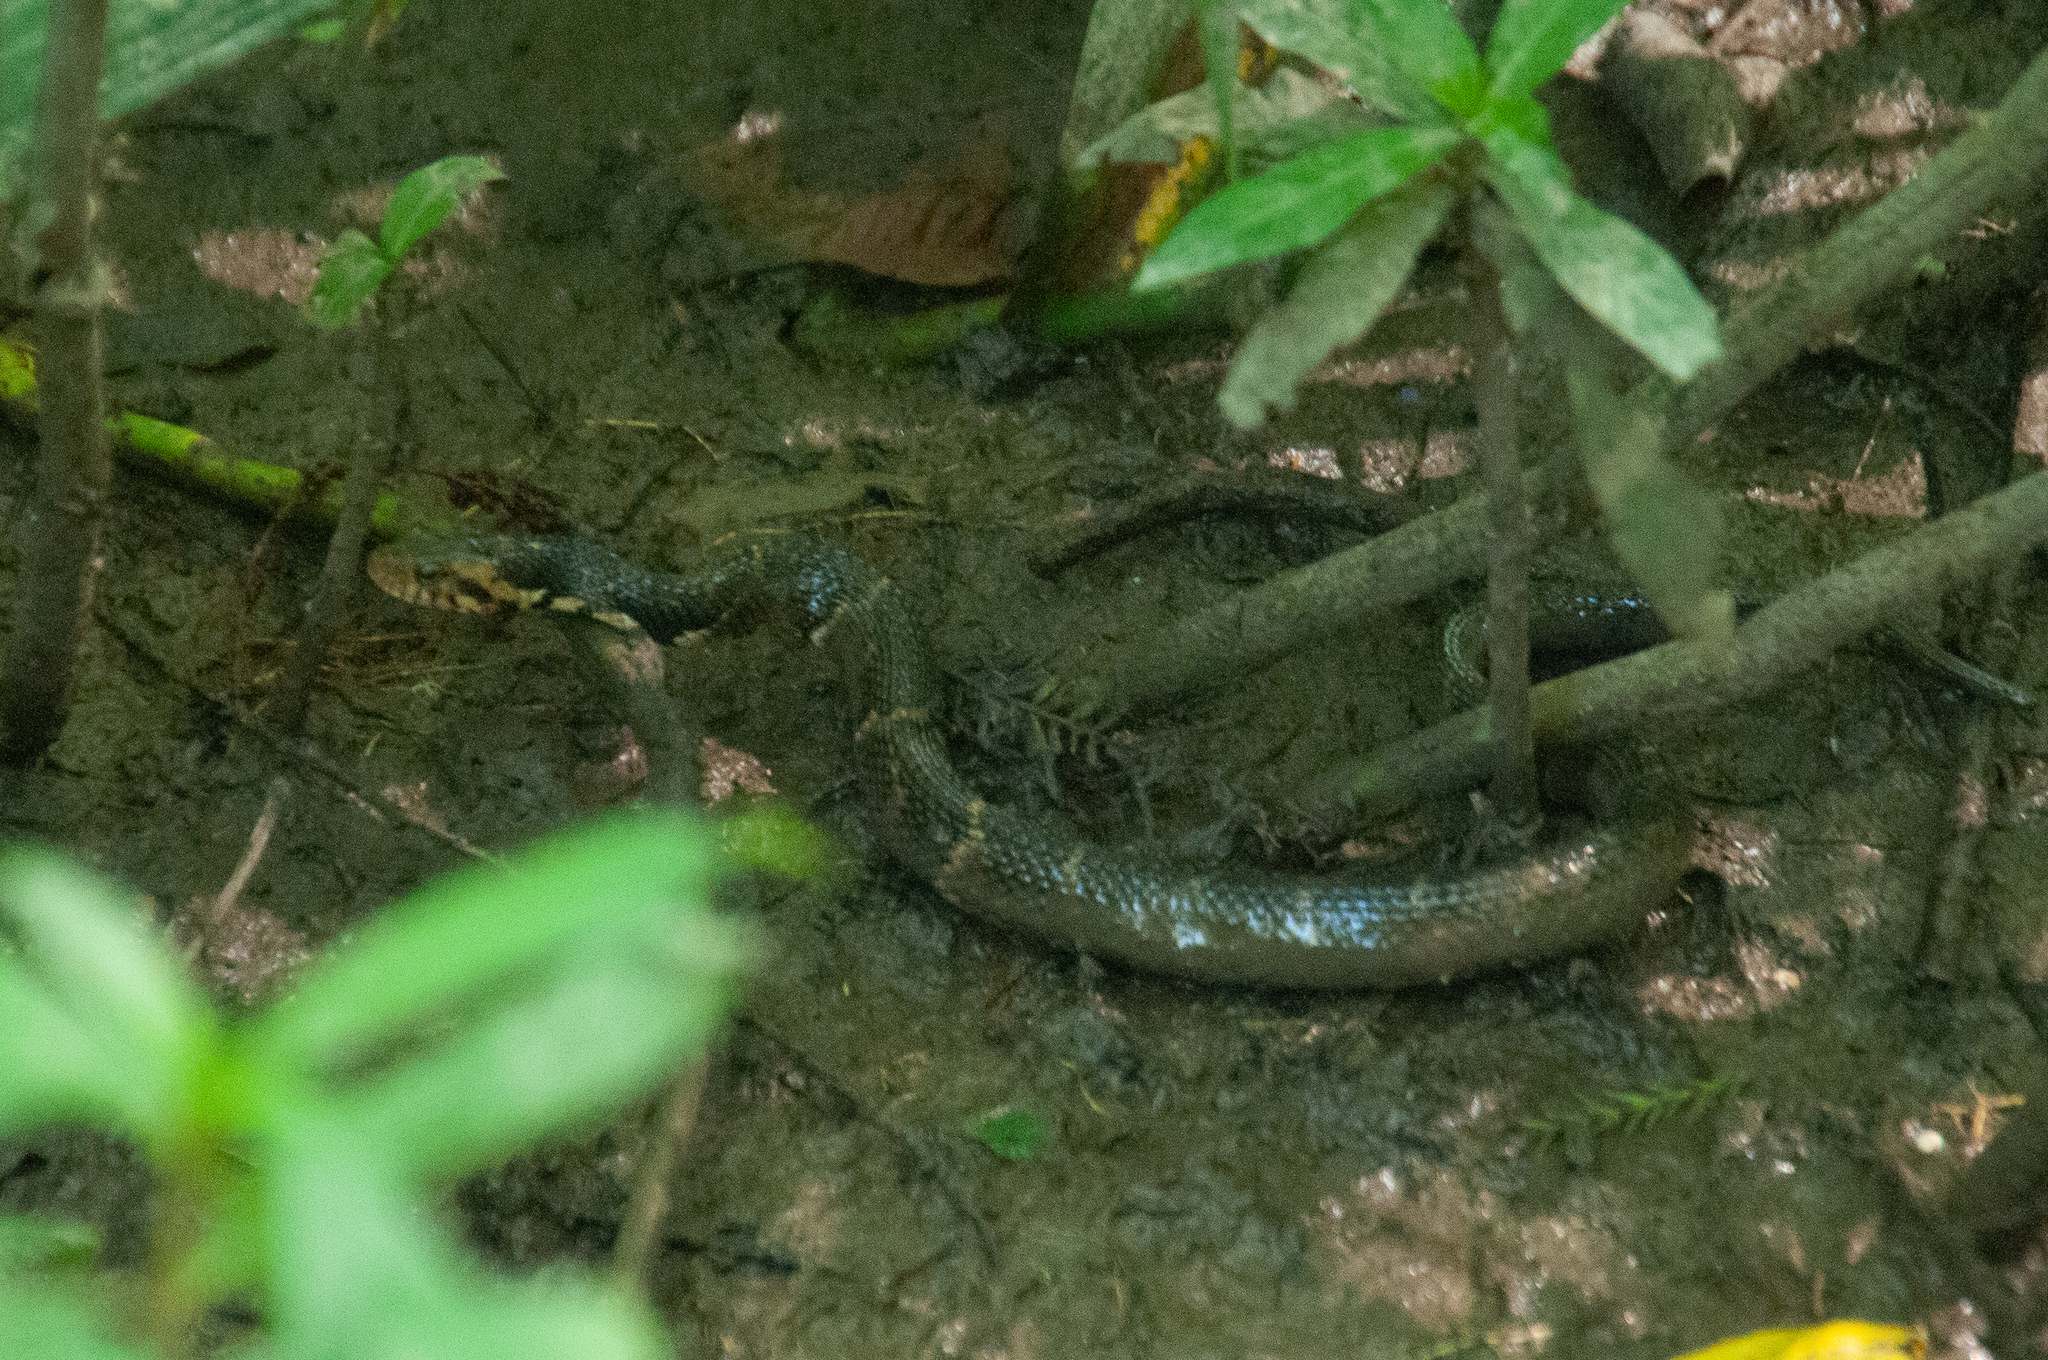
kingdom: Animalia
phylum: Chordata
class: Squamata
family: Colubridae
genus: Nerodia
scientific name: Nerodia fasciata
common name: Southern water snake
